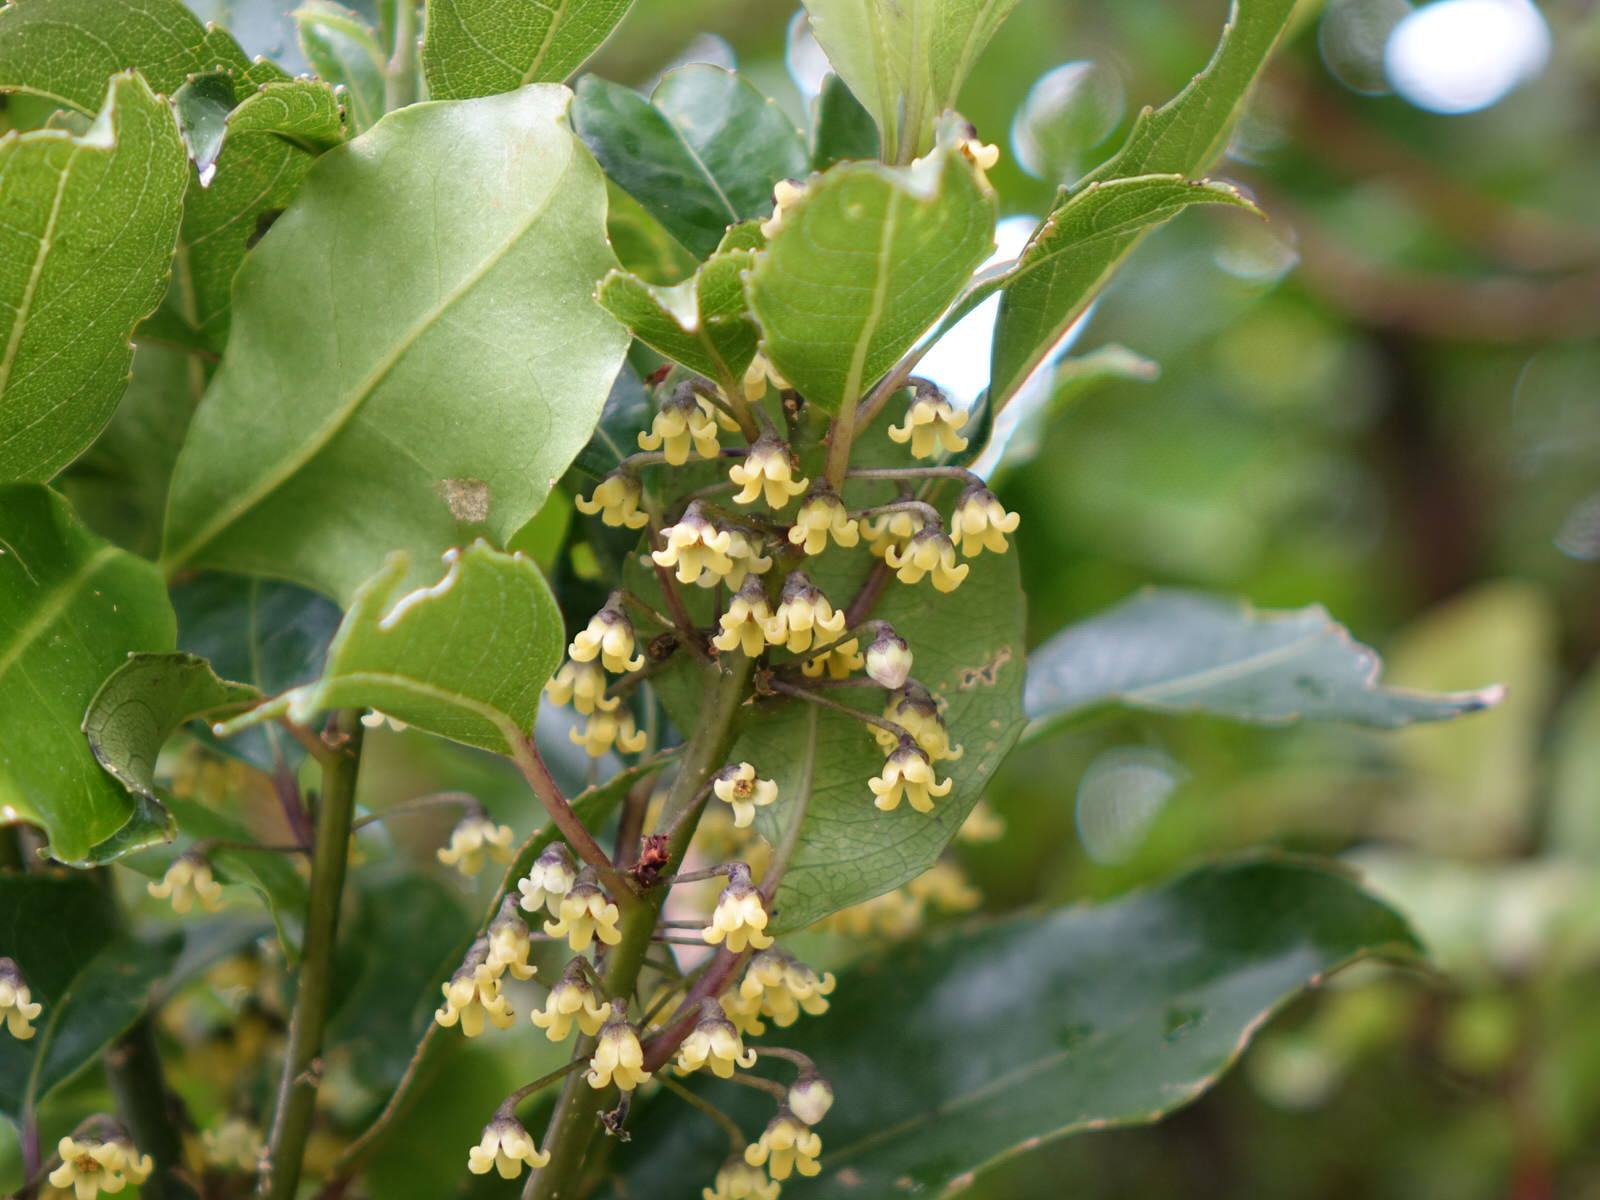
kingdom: Plantae
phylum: Tracheophyta
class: Magnoliopsida
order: Malpighiales
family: Violaceae
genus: Melicytus
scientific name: Melicytus macrophyllus
